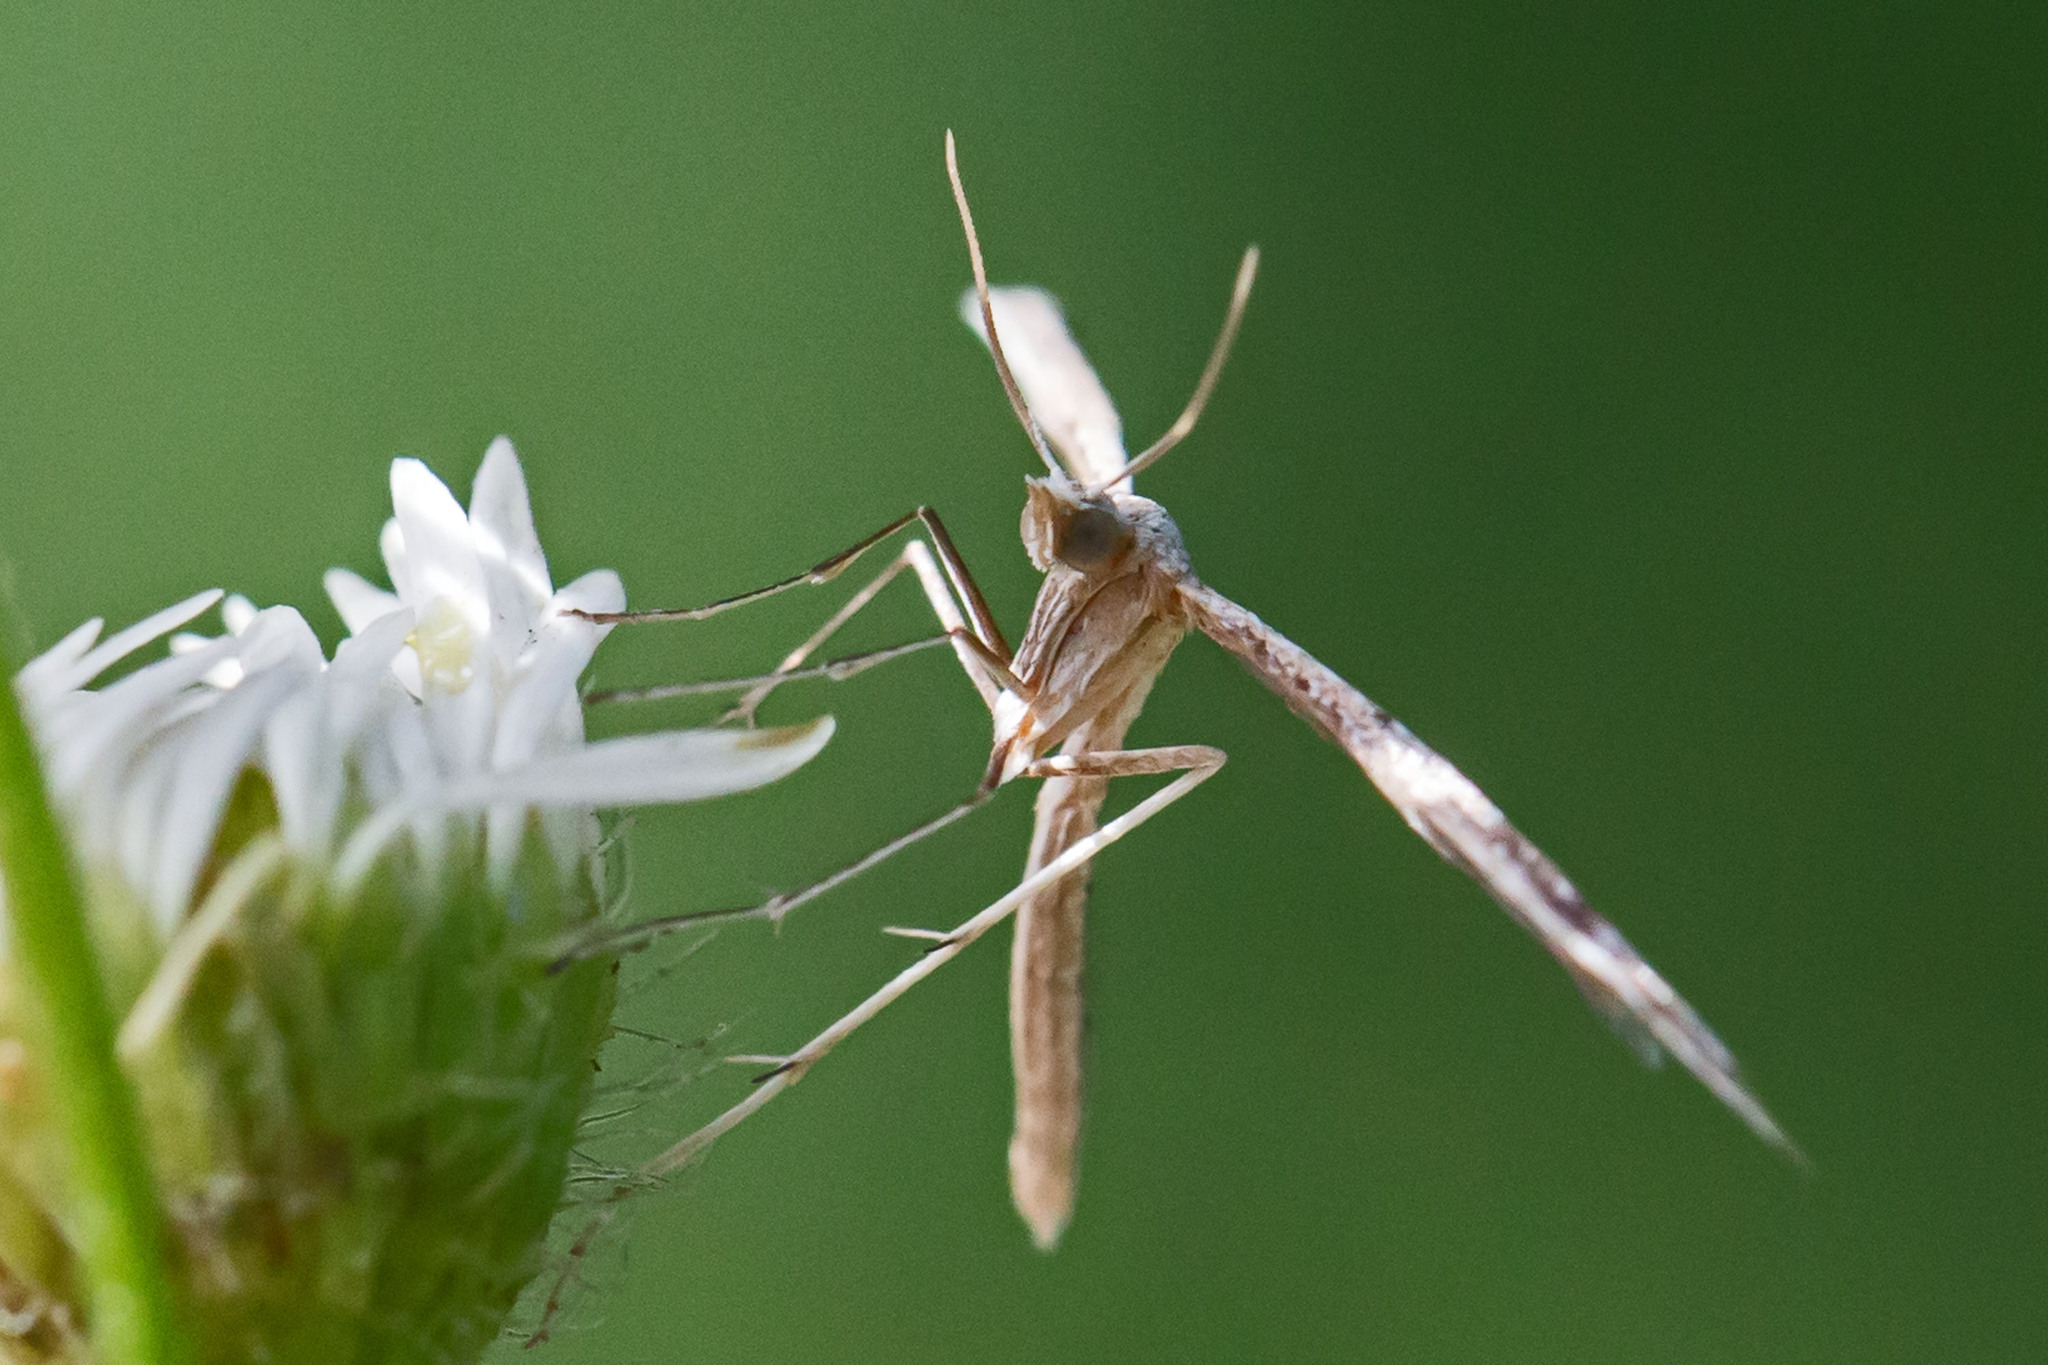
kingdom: Animalia
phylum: Arthropoda
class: Insecta
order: Lepidoptera
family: Pterophoridae
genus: Lioptilodes
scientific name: Lioptilodes albistriolatus
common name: Moth
